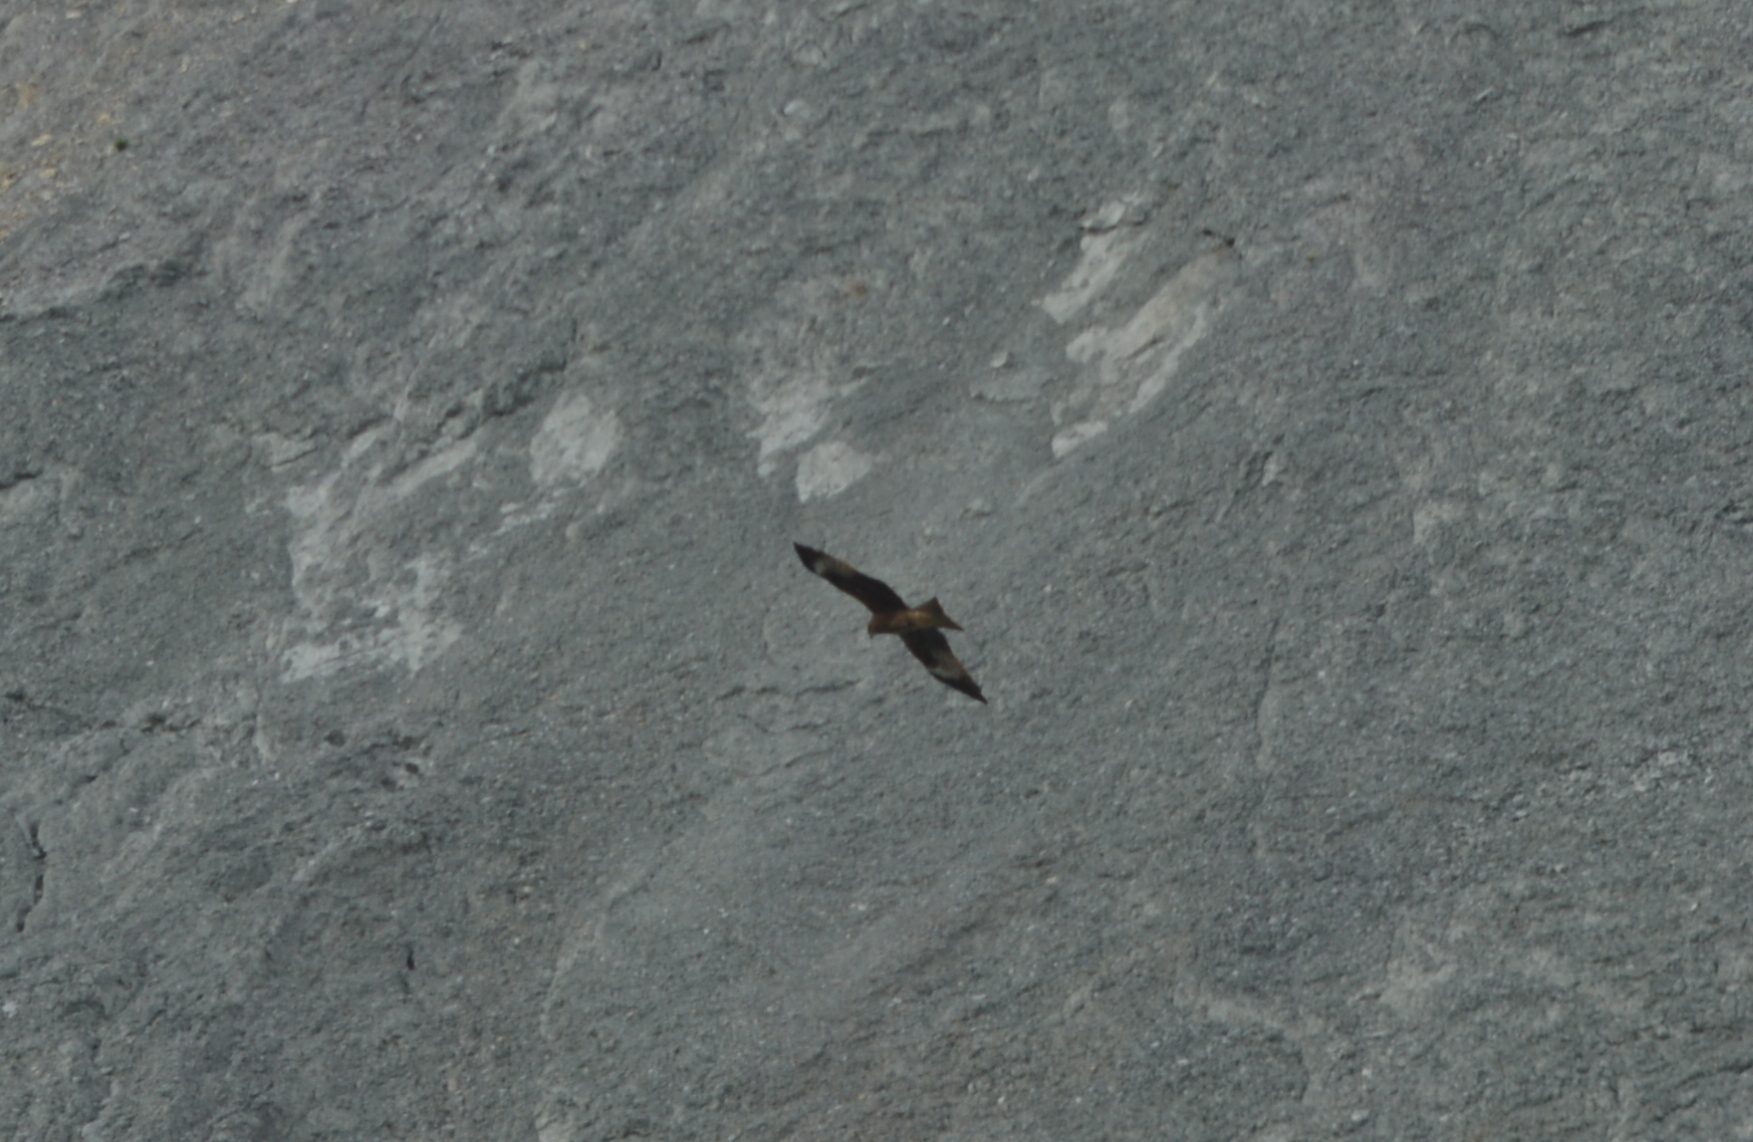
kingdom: Animalia
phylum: Chordata
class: Aves
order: Accipitriformes
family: Accipitridae
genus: Milvus
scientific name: Milvus migrans
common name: Black kite
